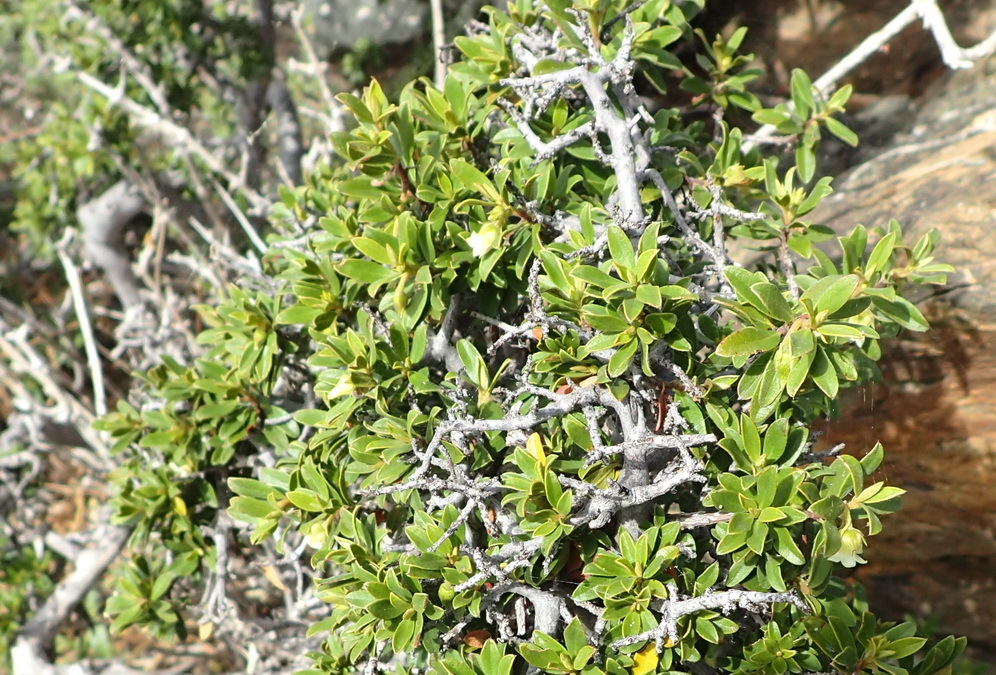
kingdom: Plantae
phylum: Tracheophyta
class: Magnoliopsida
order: Ericales
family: Ebenaceae
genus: Diospyros
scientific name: Diospyros dichrophylla
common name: Common star-apple
